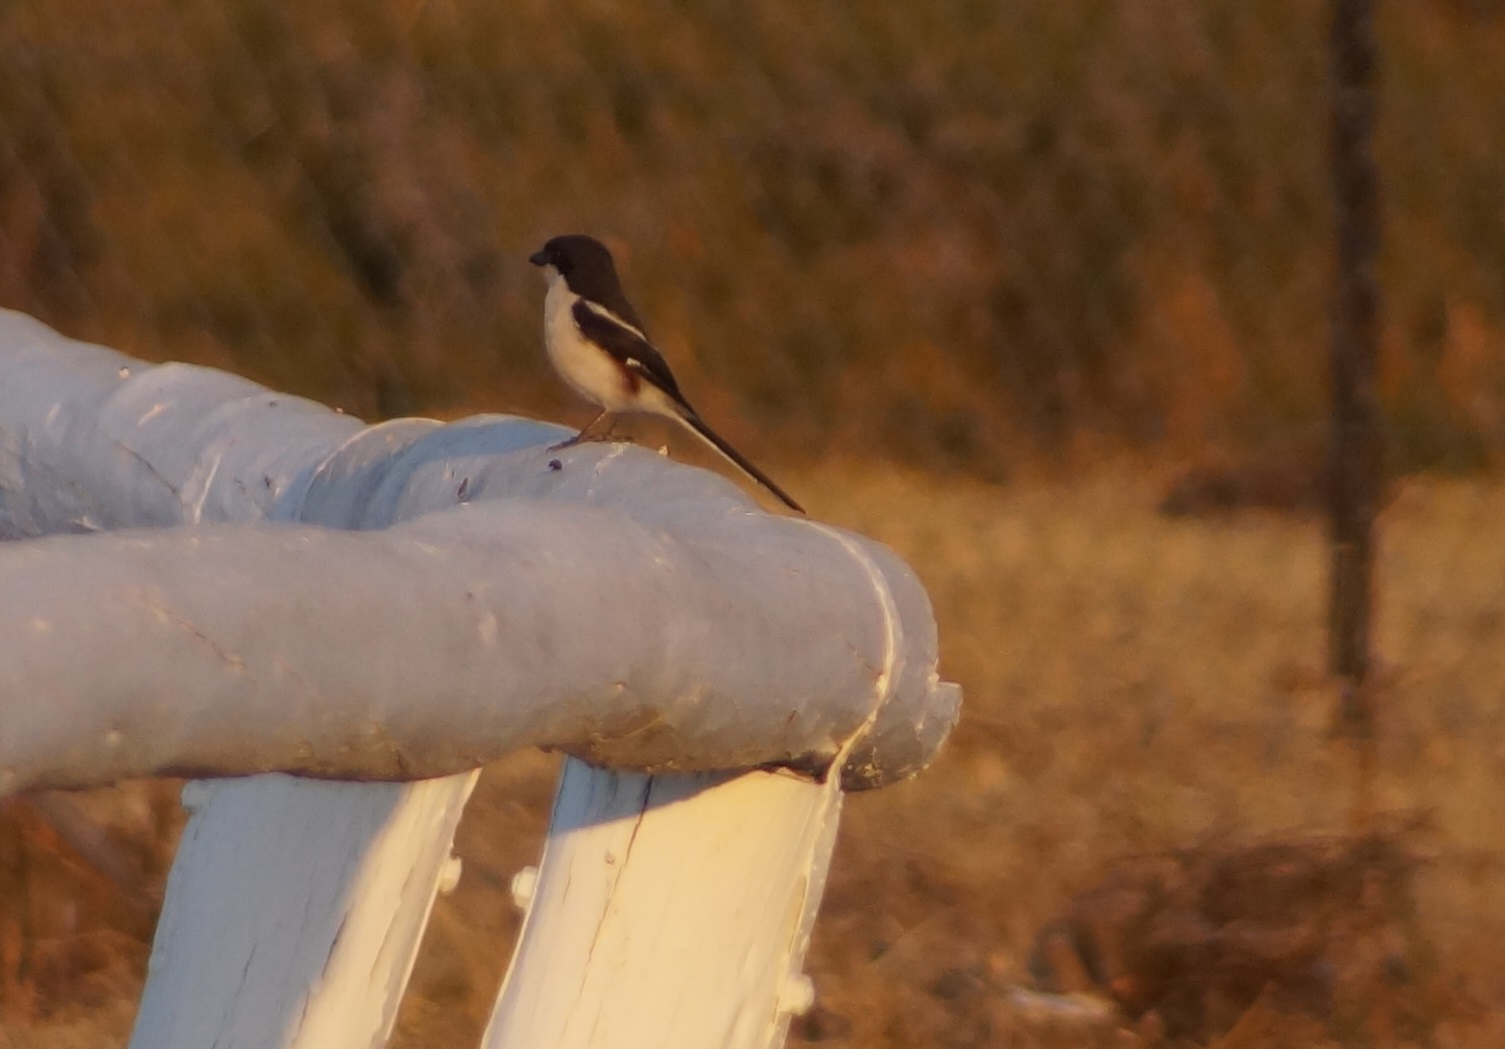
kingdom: Animalia
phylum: Chordata
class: Aves
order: Passeriformes
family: Laniidae
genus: Lanius
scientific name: Lanius collaris
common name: Southern fiscal
